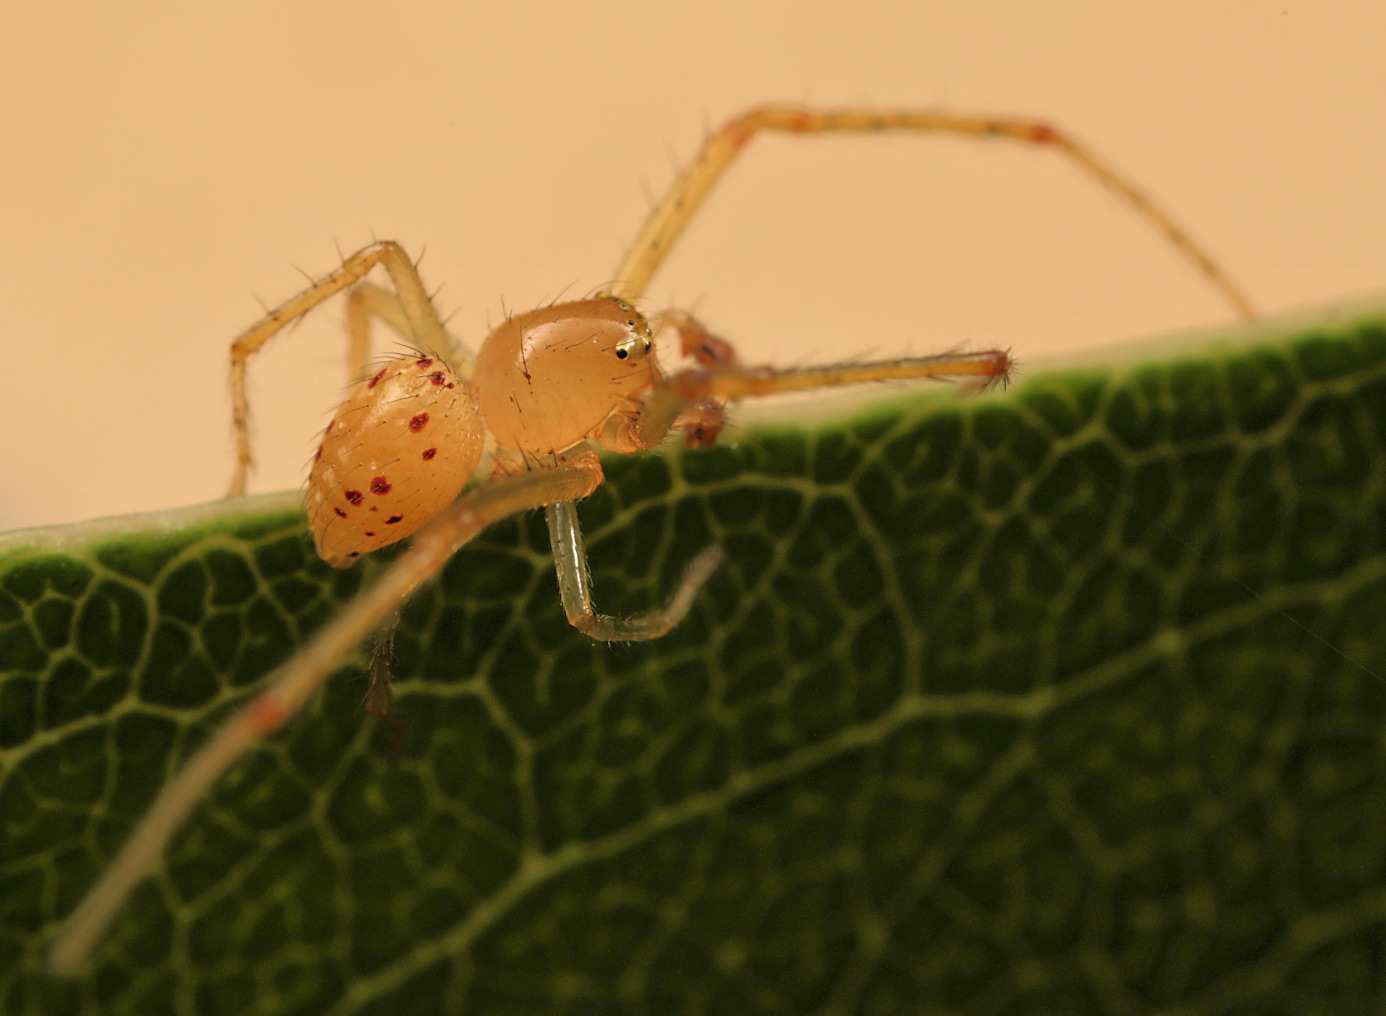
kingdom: Animalia
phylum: Arthropoda
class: Arachnida
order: Araneae
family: Thomisidae
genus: Diaea
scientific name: Diaea puncta
